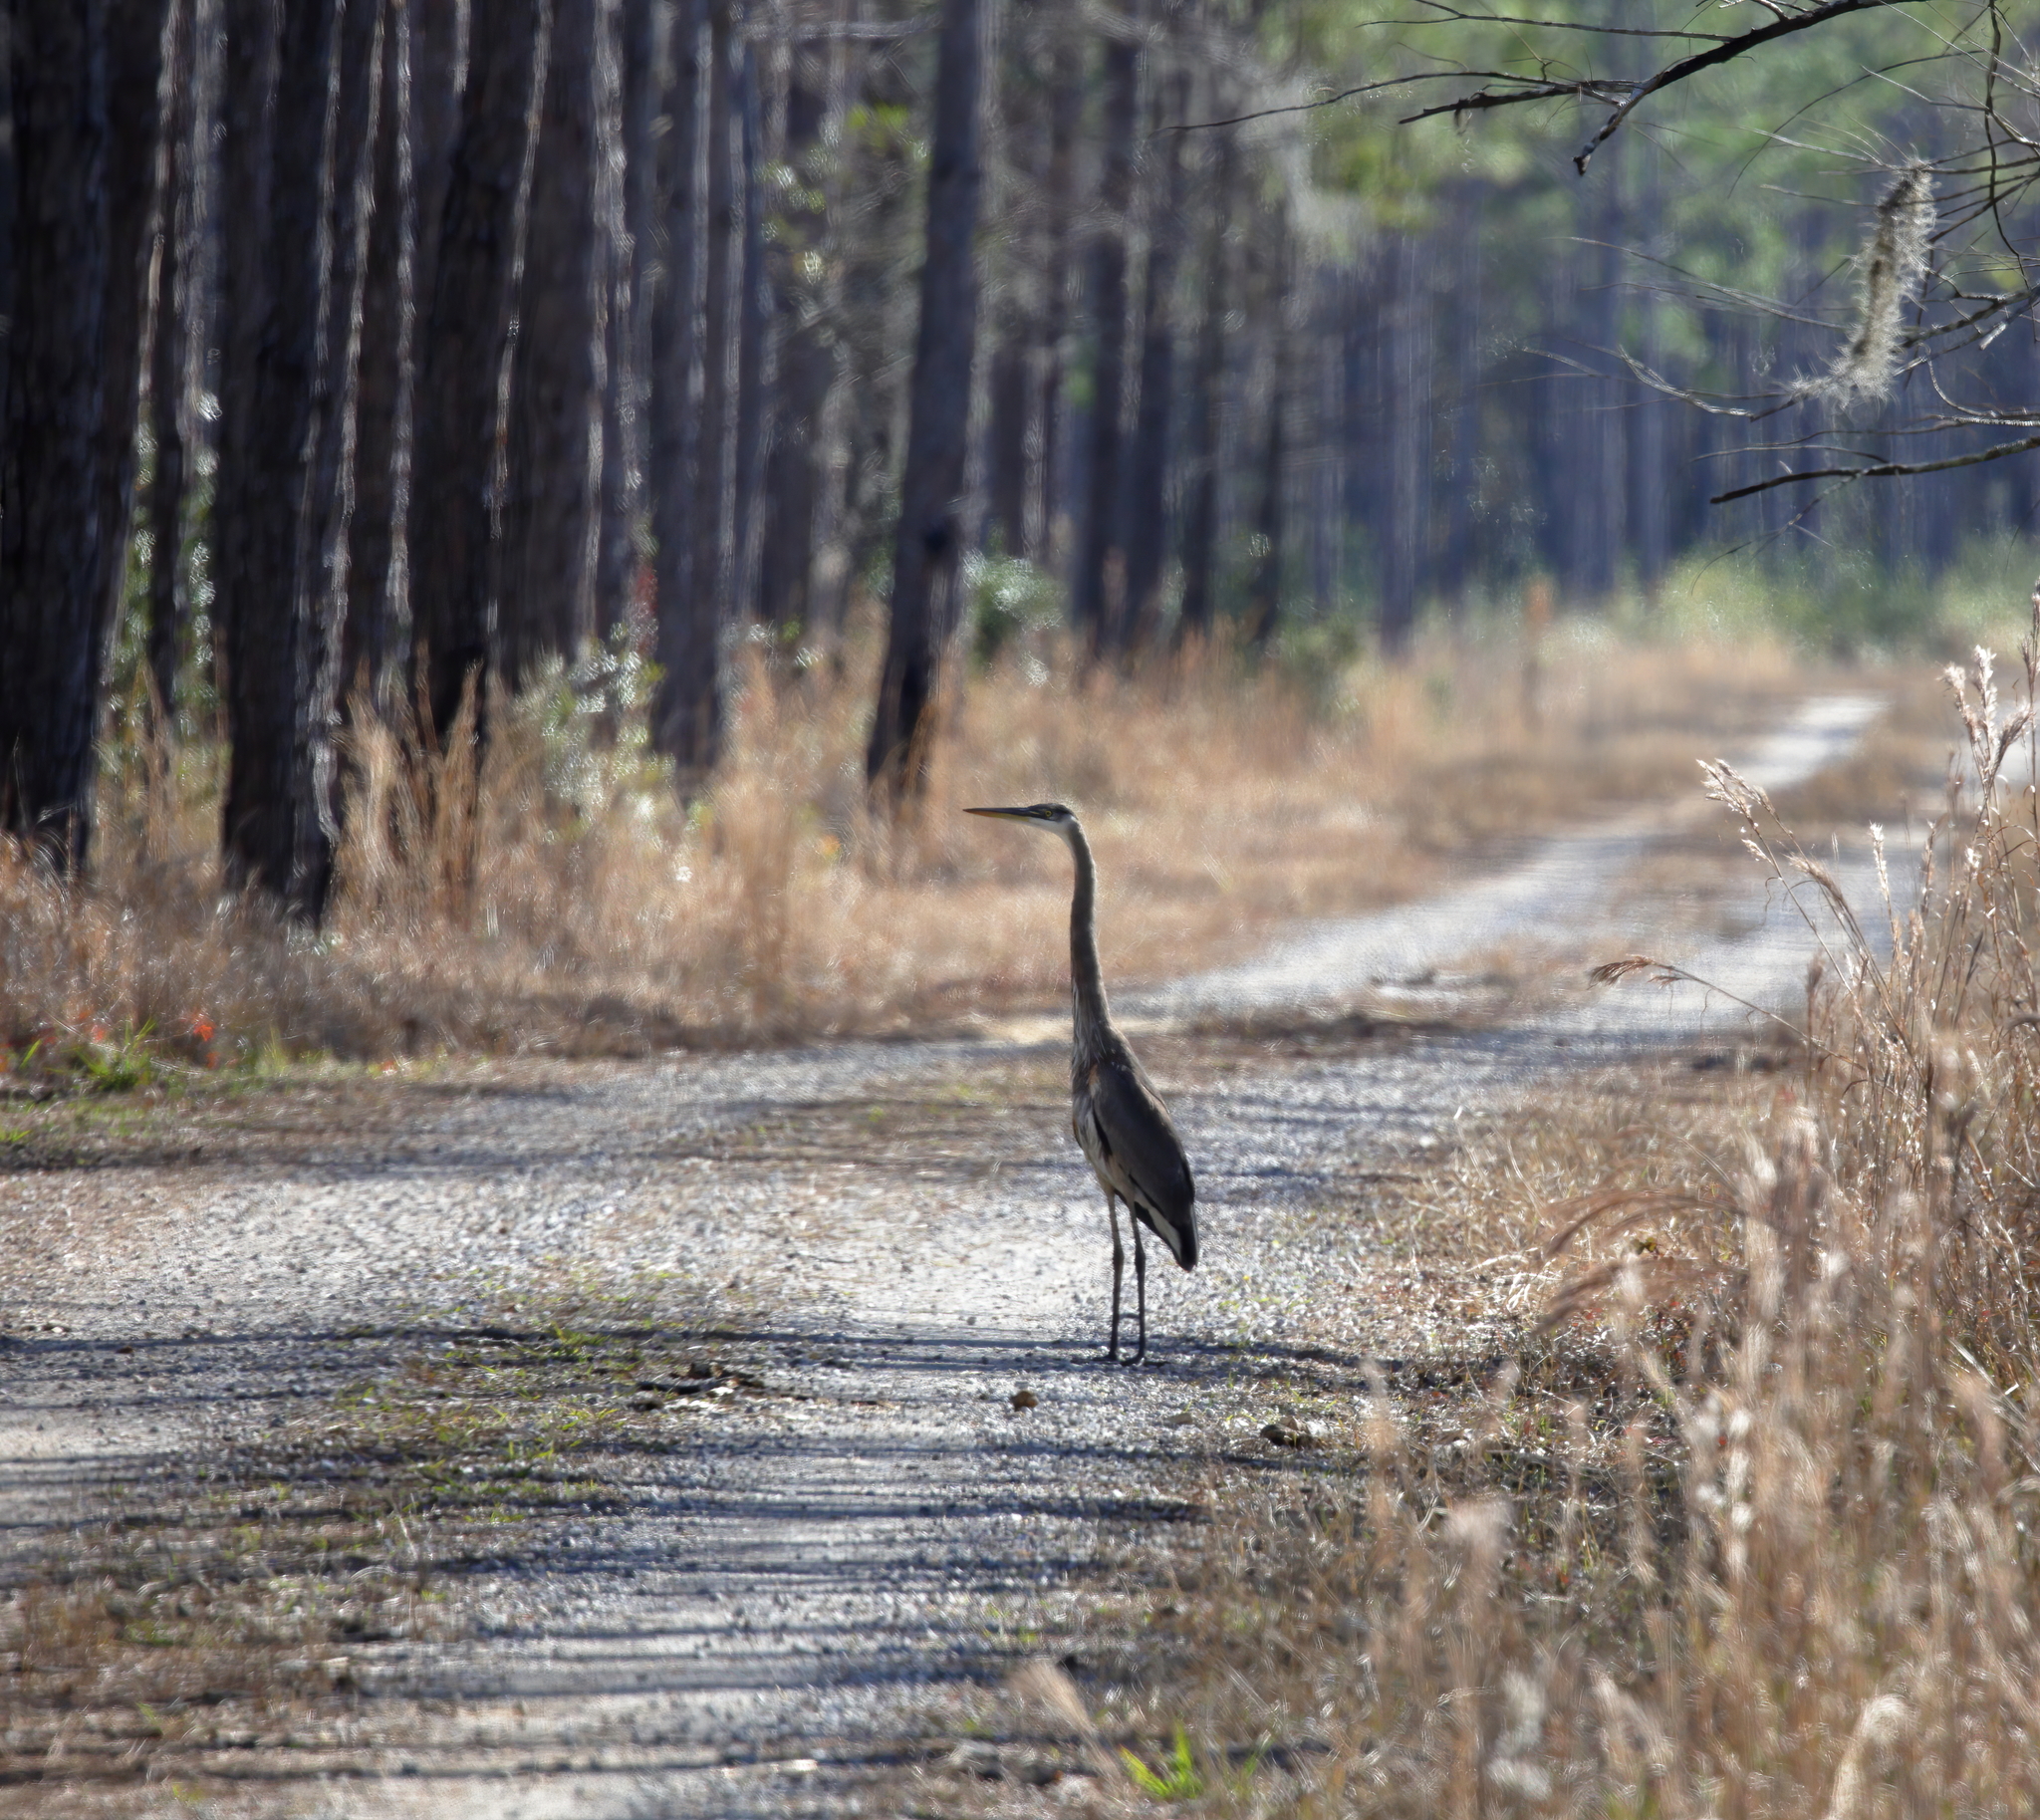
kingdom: Animalia
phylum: Chordata
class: Aves
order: Pelecaniformes
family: Ardeidae
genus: Ardea
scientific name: Ardea herodias
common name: Great blue heron
